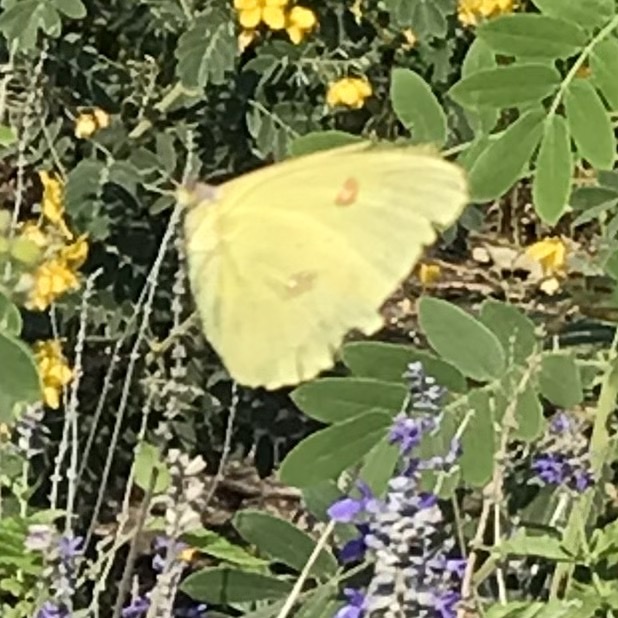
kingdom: Animalia
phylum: Arthropoda
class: Insecta
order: Lepidoptera
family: Pieridae
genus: Phoebis
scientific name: Phoebis sennae
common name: Cloudless sulphur
